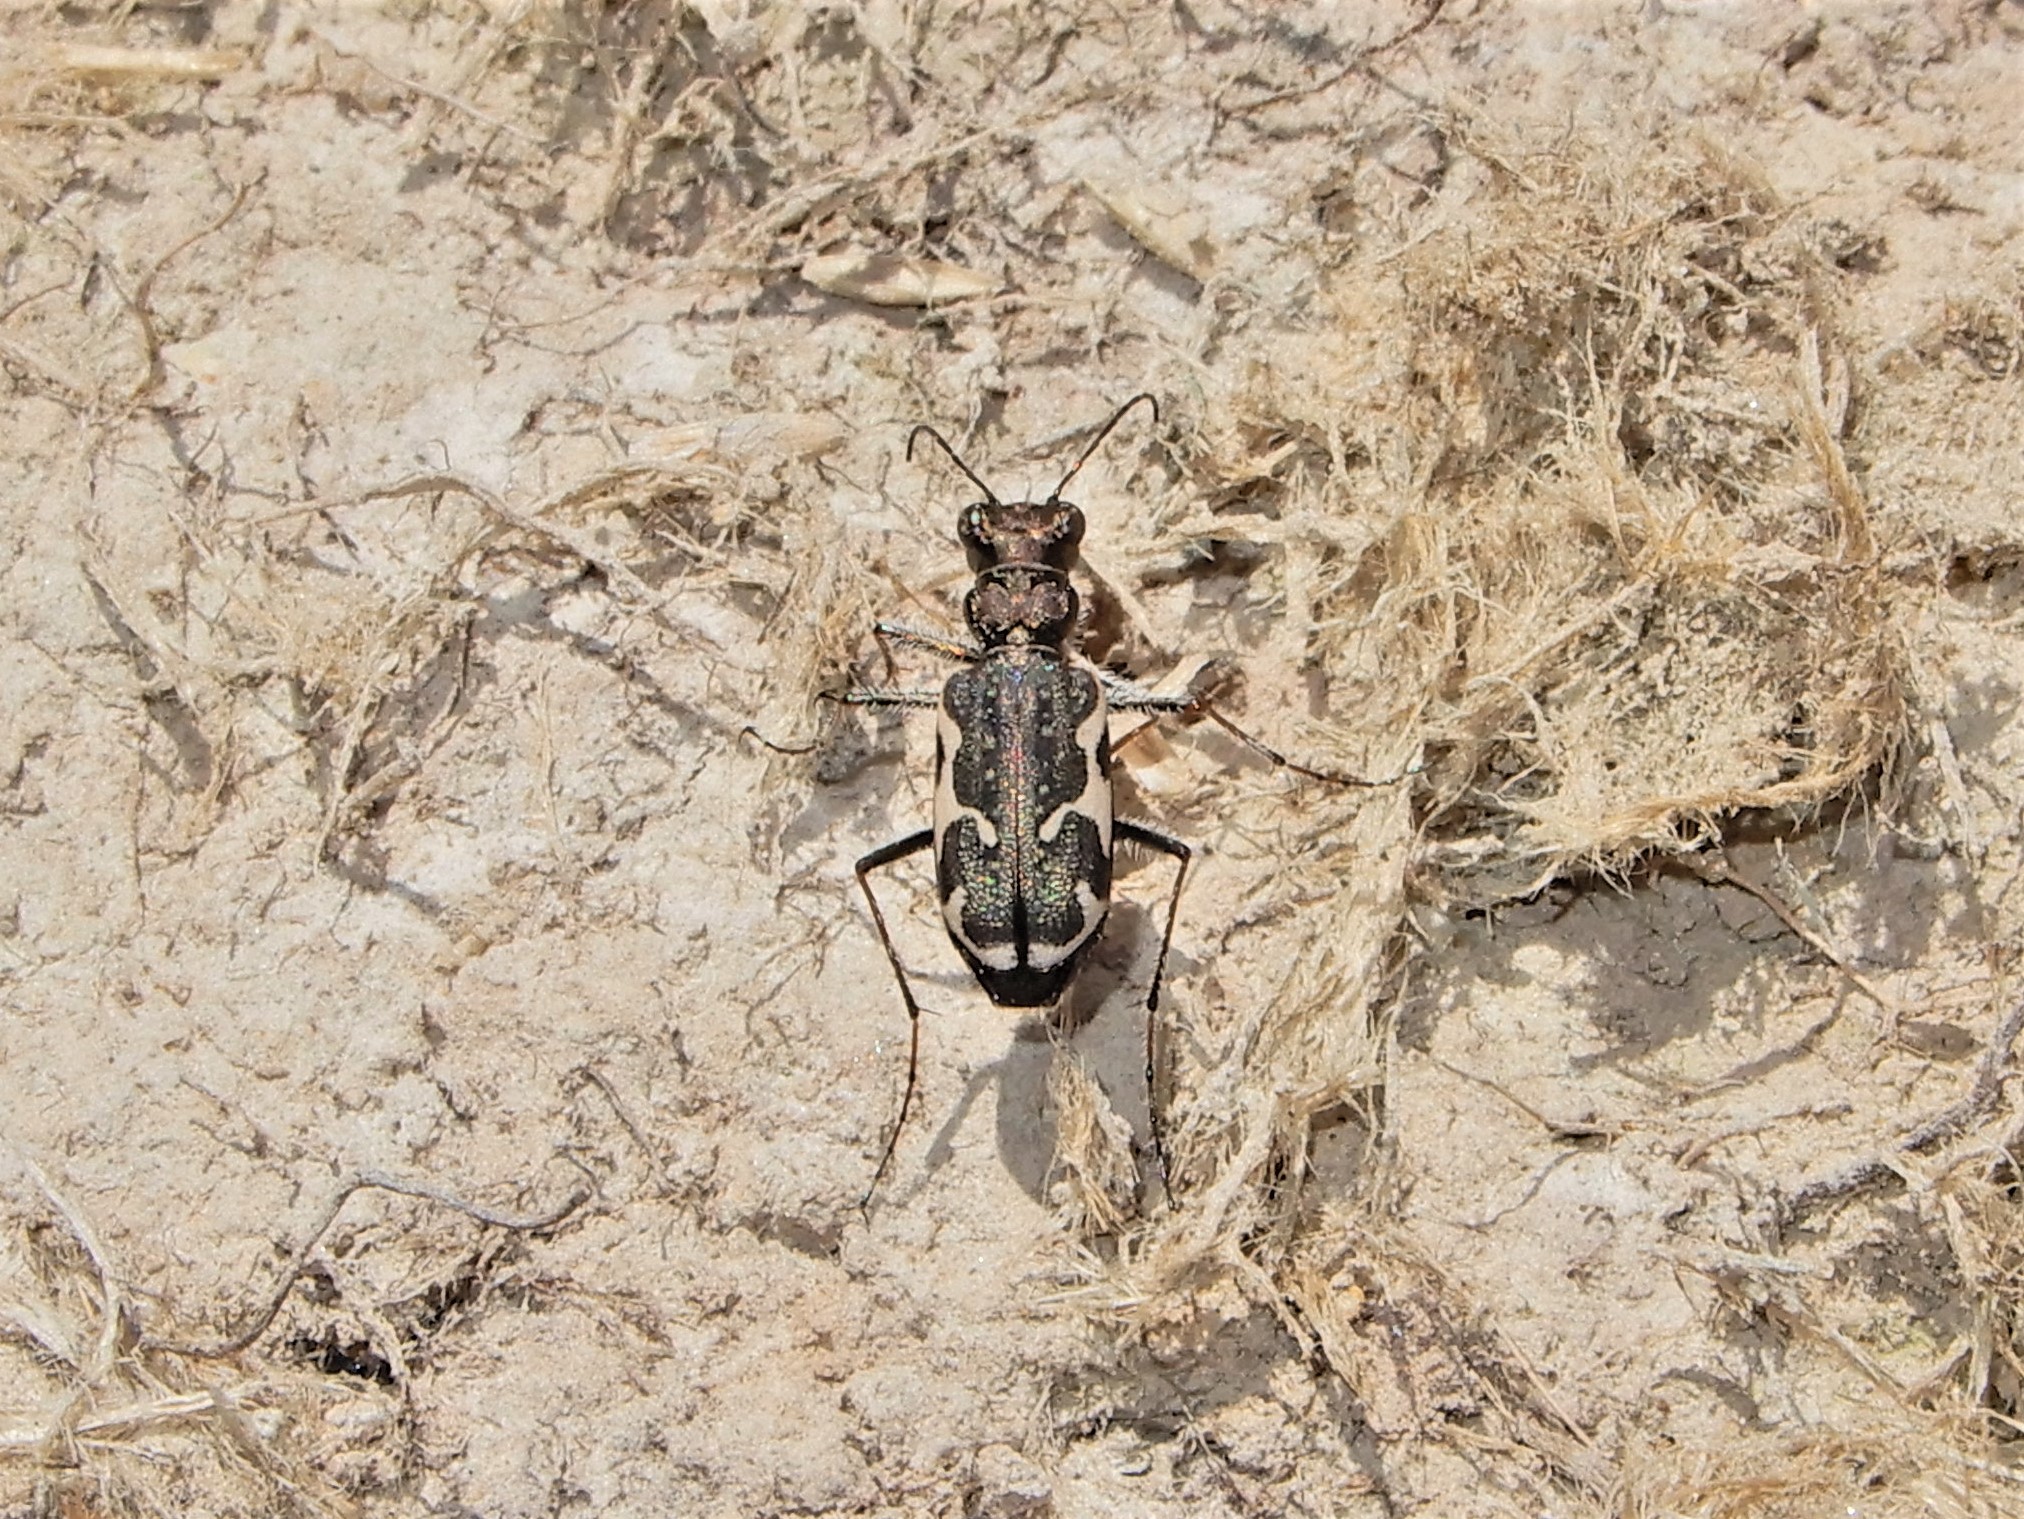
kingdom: Animalia
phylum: Arthropoda
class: Insecta
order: Coleoptera
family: Carabidae
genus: Neocicindela
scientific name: Neocicindela tuberculata
